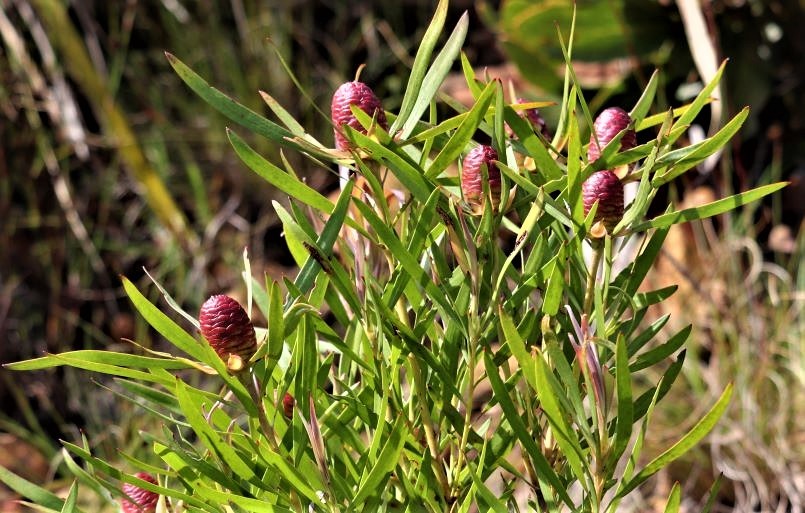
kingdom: Plantae
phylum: Tracheophyta
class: Magnoliopsida
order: Proteales
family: Proteaceae
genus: Leucadendron
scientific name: Leucadendron eucalyptifolium
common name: Gum-leaved conebush
